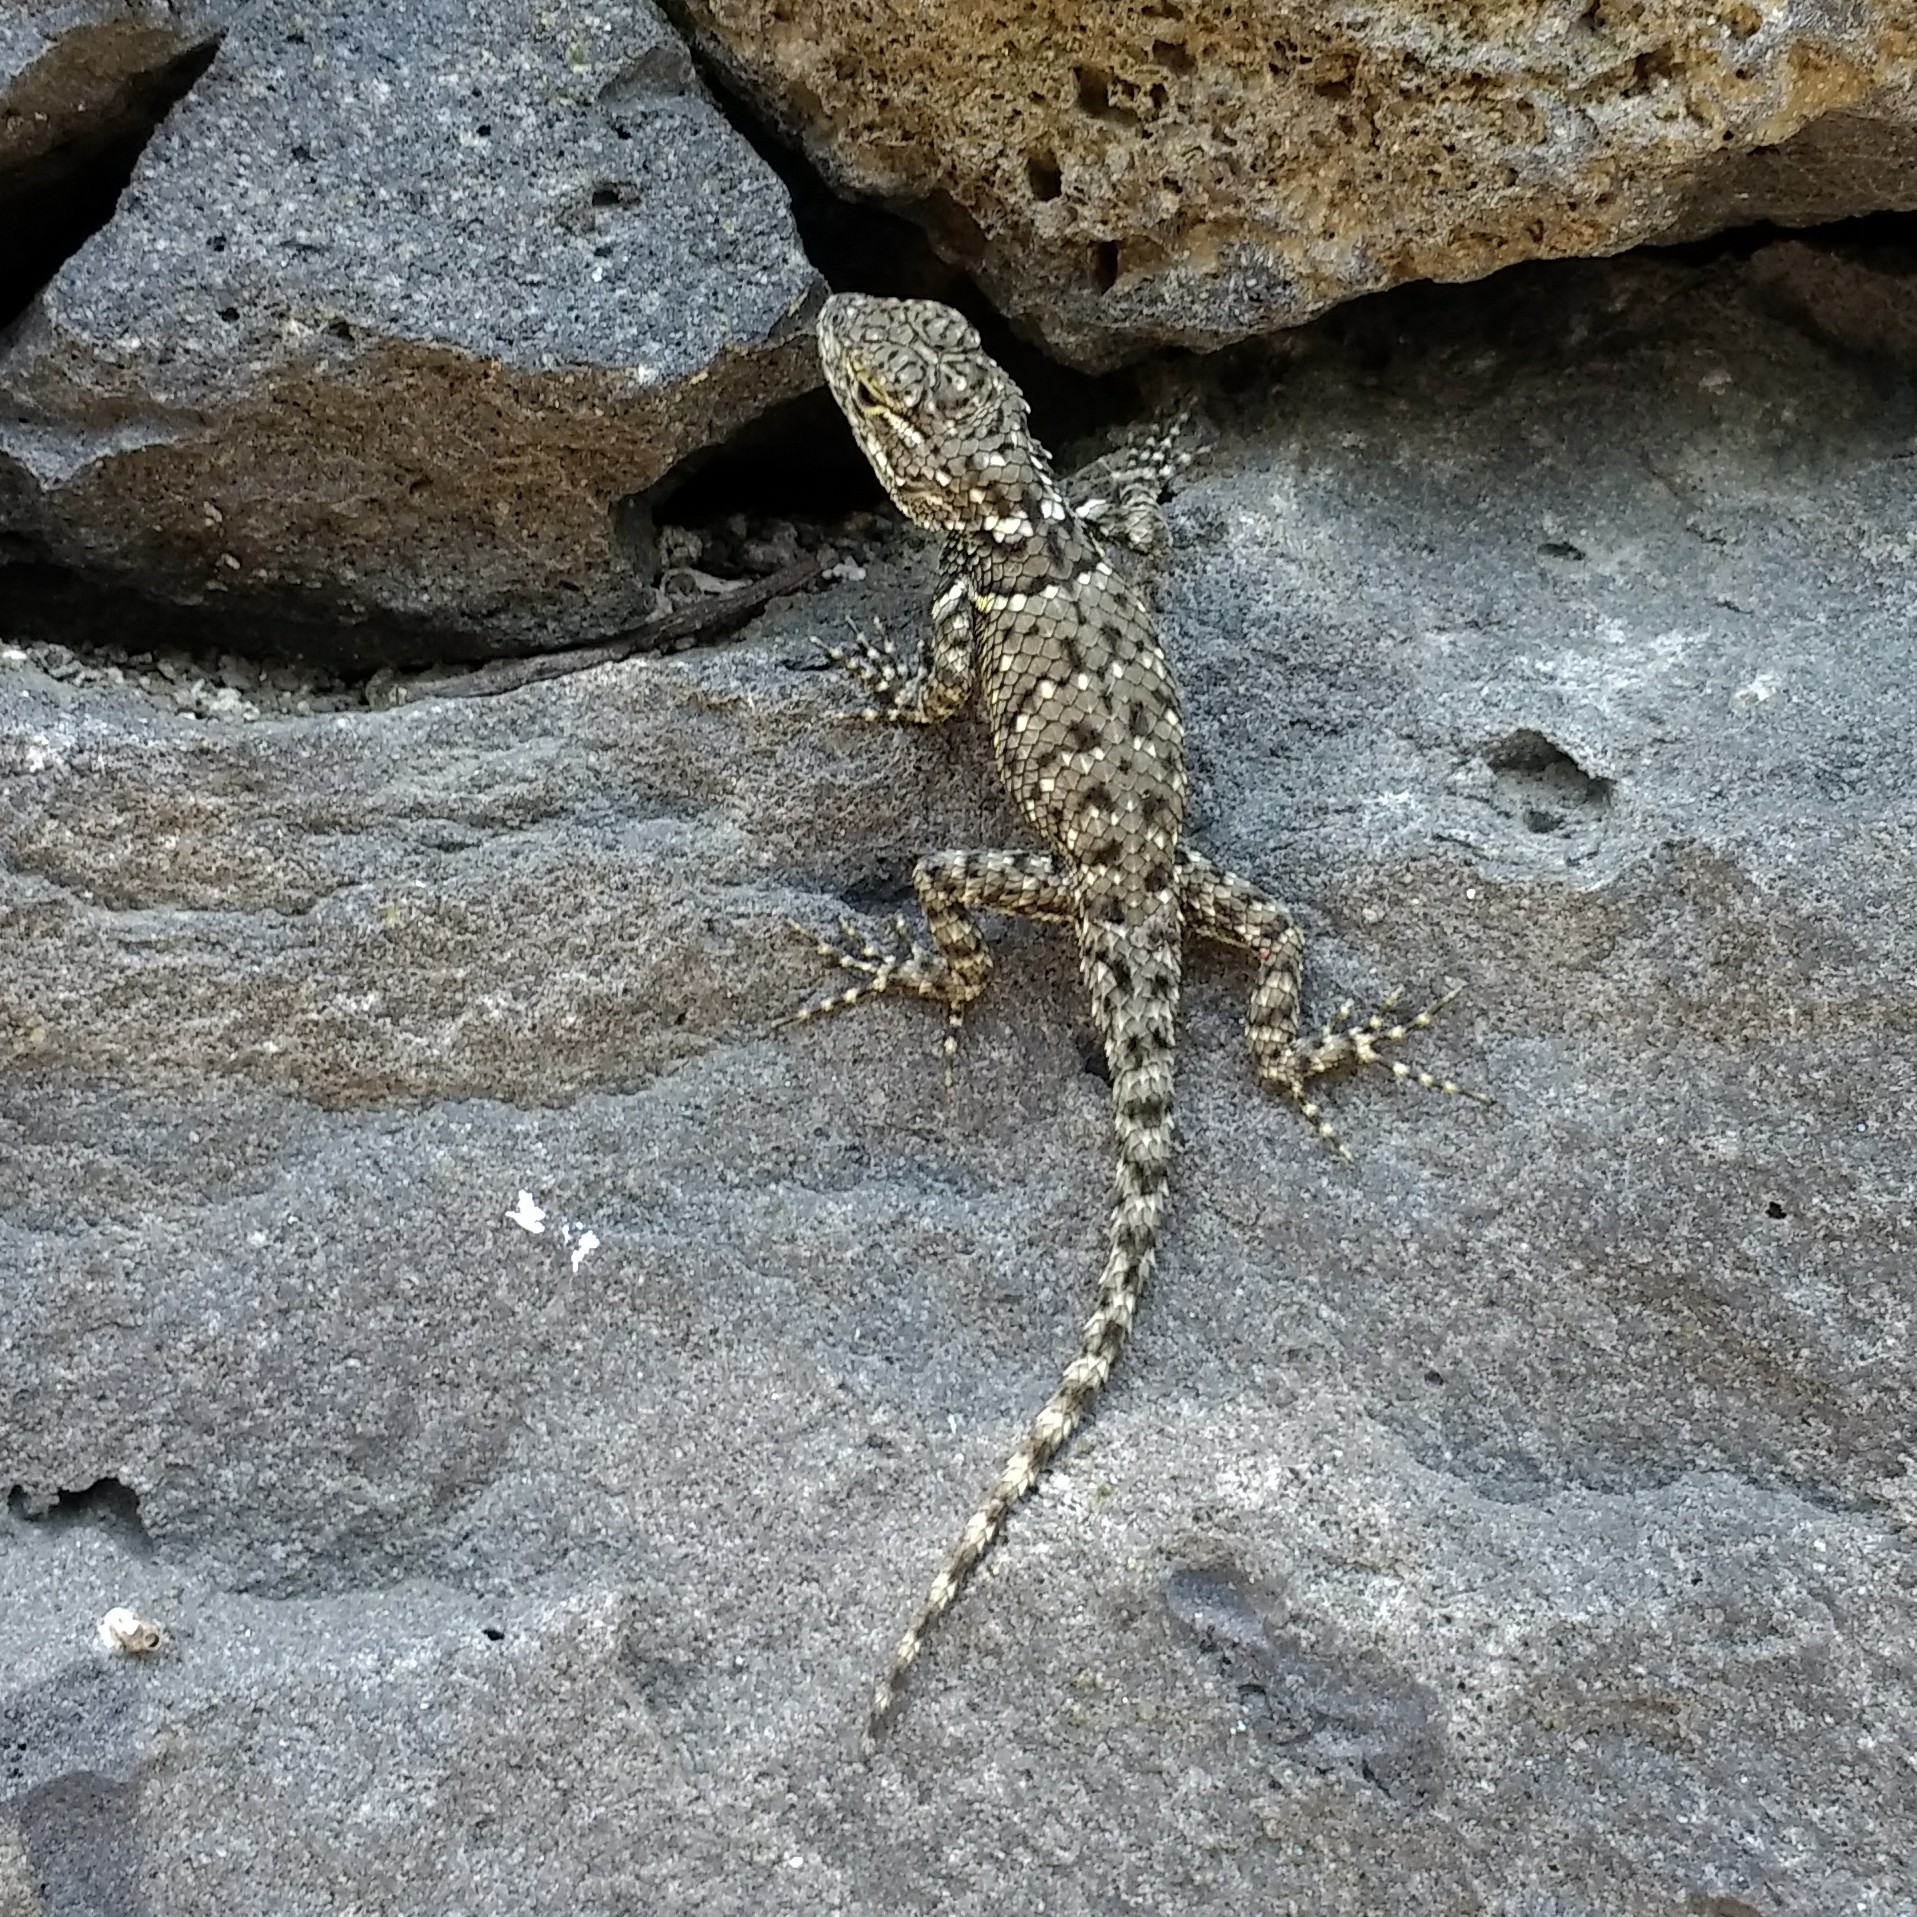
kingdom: Animalia
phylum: Chordata
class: Squamata
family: Phrynosomatidae
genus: Sceloporus
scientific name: Sceloporus torquatus
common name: Central plateau torquate lizard [melanogaster]
